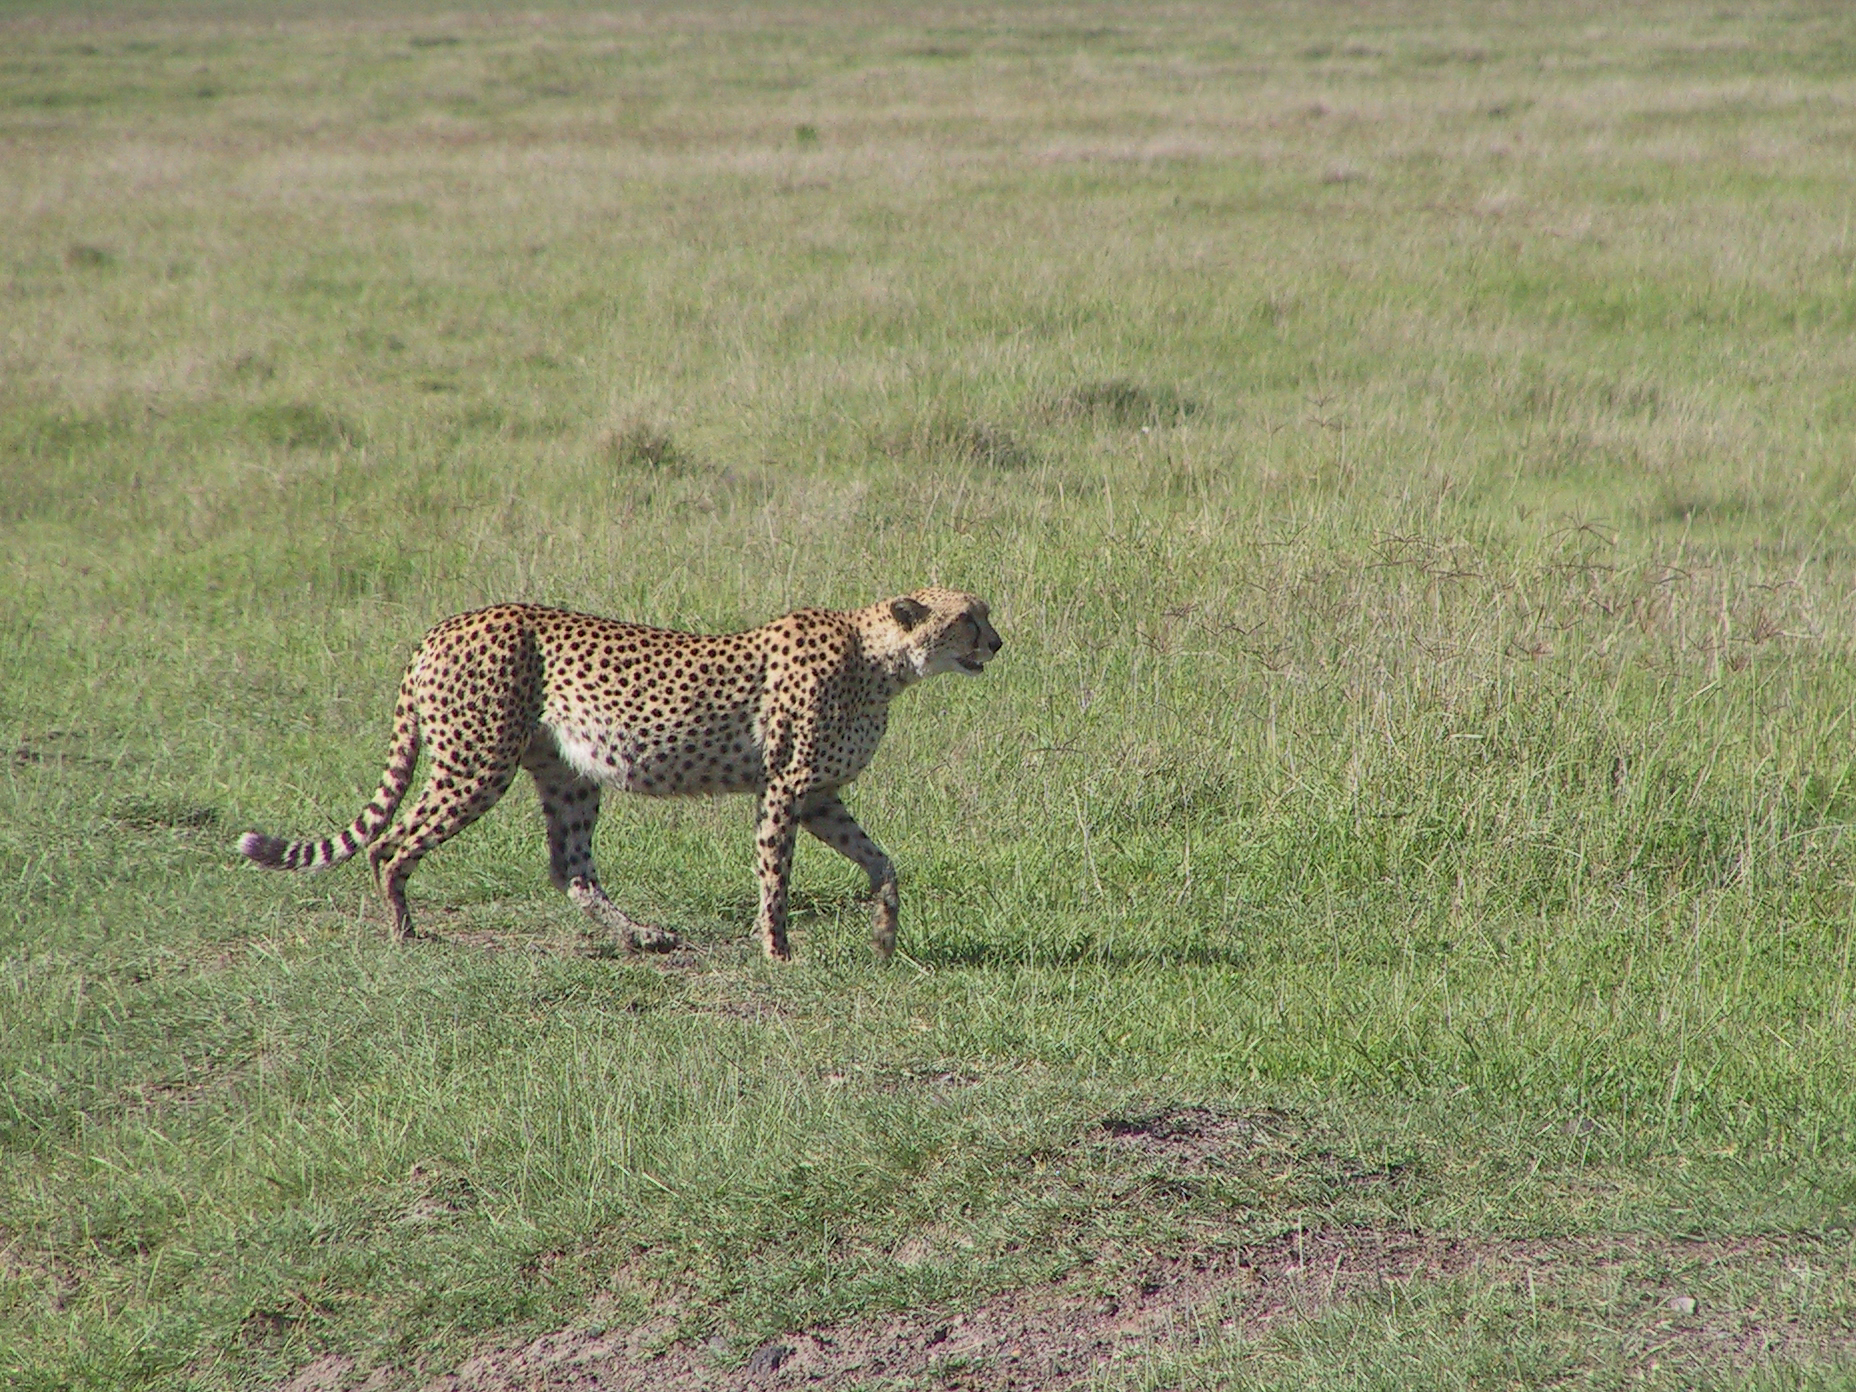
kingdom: Animalia
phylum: Chordata
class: Mammalia
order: Carnivora
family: Felidae
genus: Acinonyx
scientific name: Acinonyx jubatus
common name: Cheetah
